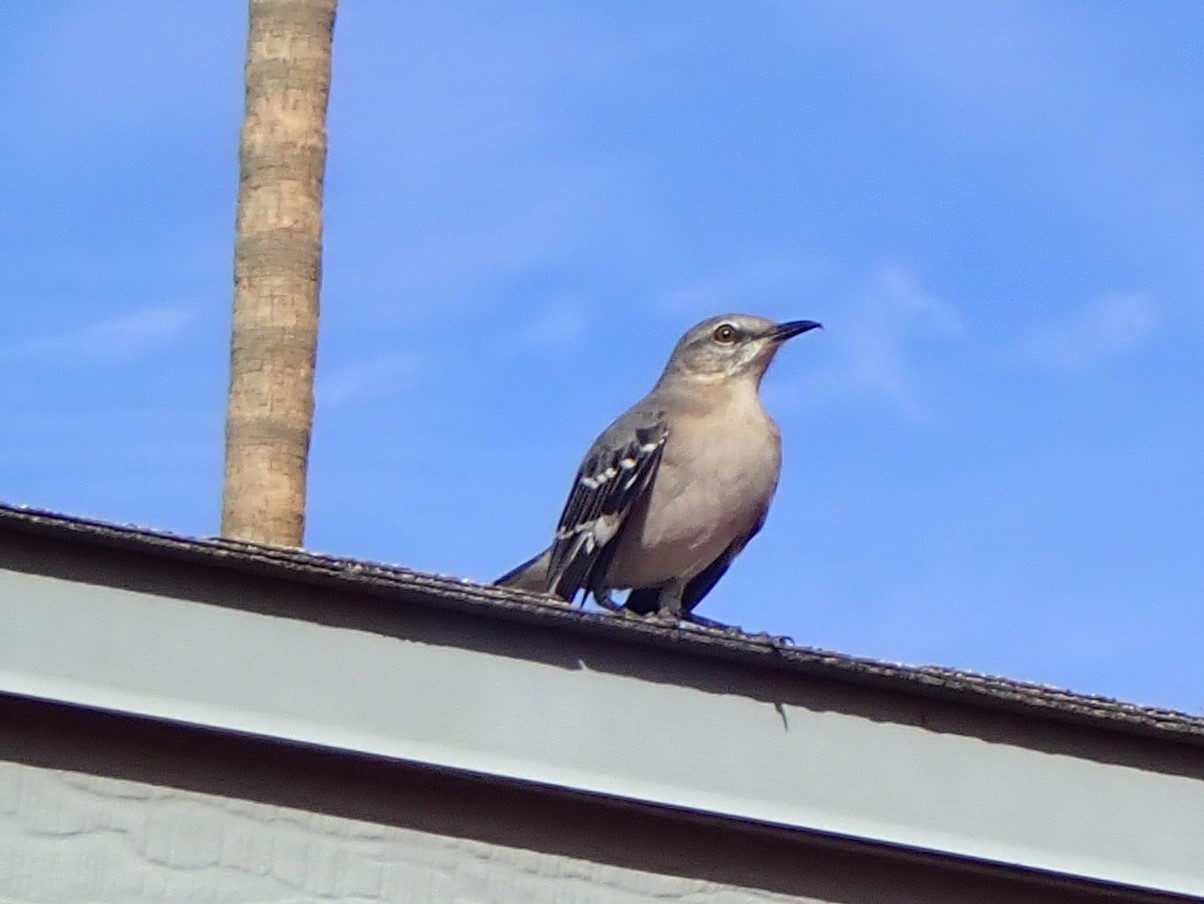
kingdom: Animalia
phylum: Chordata
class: Aves
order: Passeriformes
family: Mimidae
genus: Mimus
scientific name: Mimus polyglottos
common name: Northern mockingbird
